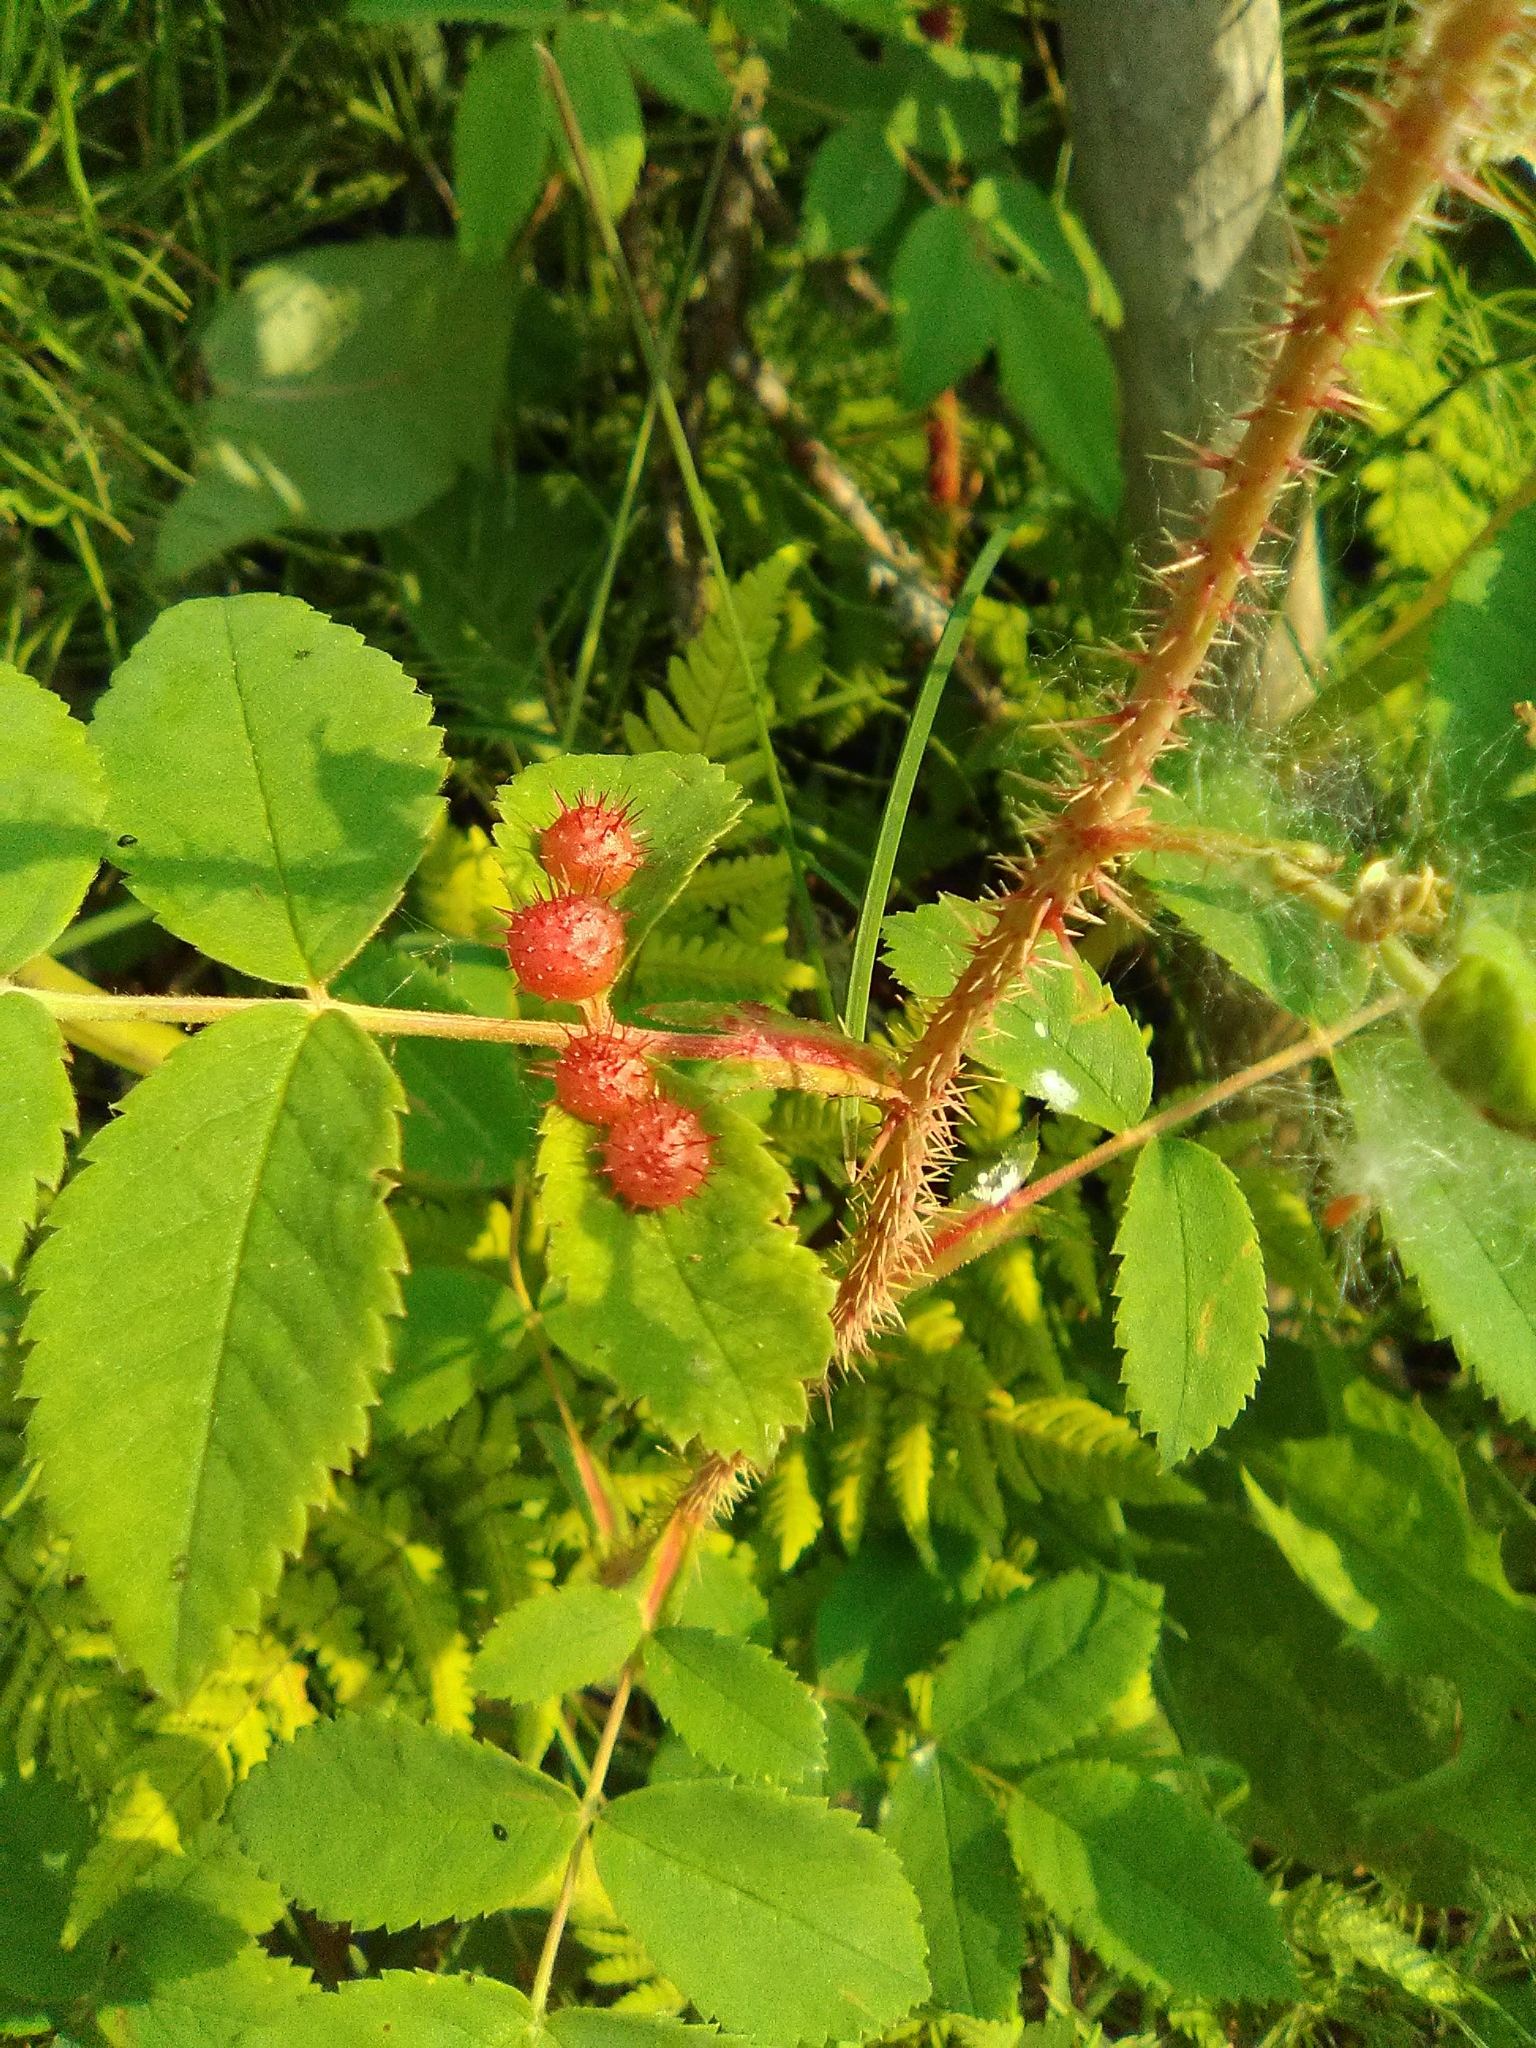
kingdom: Animalia
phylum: Arthropoda
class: Insecta
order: Hymenoptera
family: Cynipidae
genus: Diplolepis
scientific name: Diplolepis polita
